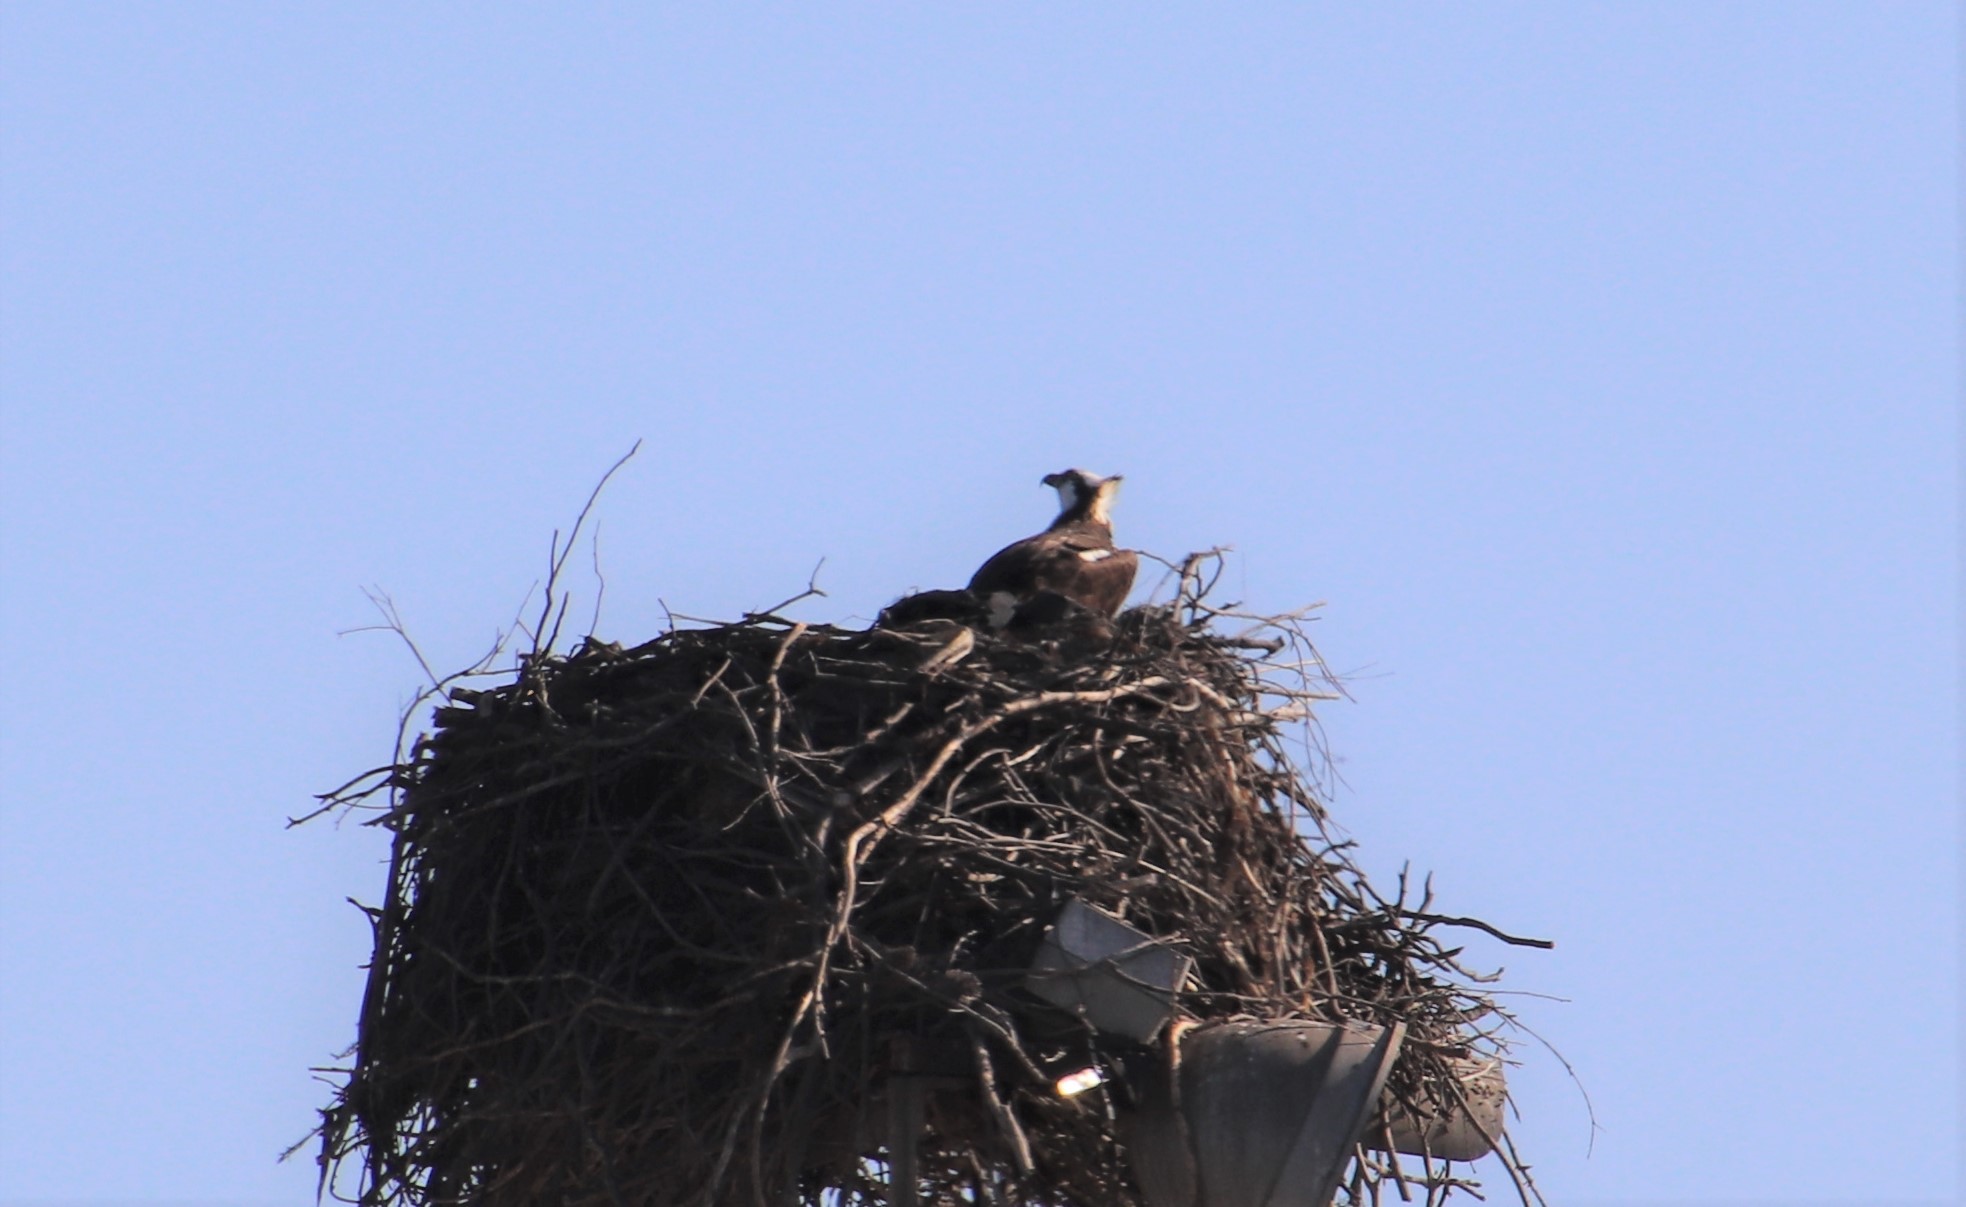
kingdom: Animalia
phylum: Chordata
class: Aves
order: Accipitriformes
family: Pandionidae
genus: Pandion
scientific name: Pandion haliaetus
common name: Osprey
